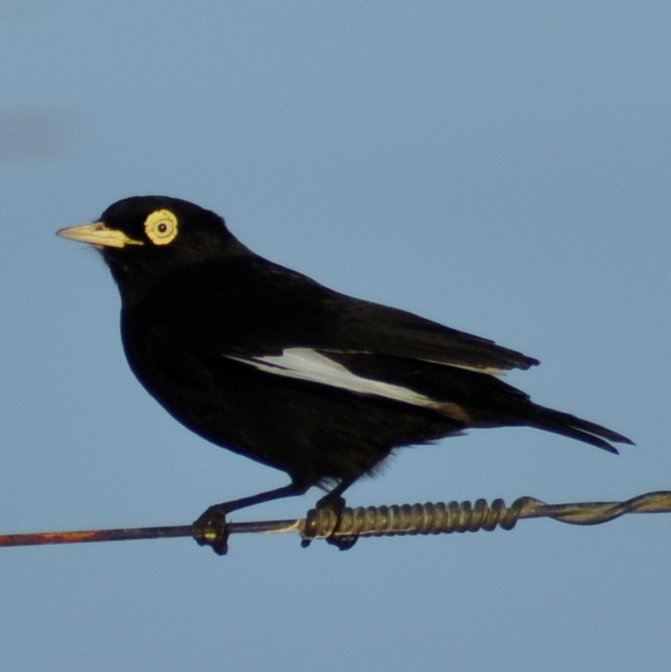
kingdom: Animalia
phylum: Chordata
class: Aves
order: Passeriformes
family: Tyrannidae
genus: Hymenops
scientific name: Hymenops perspicillatus
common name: Spectacled tyrant
